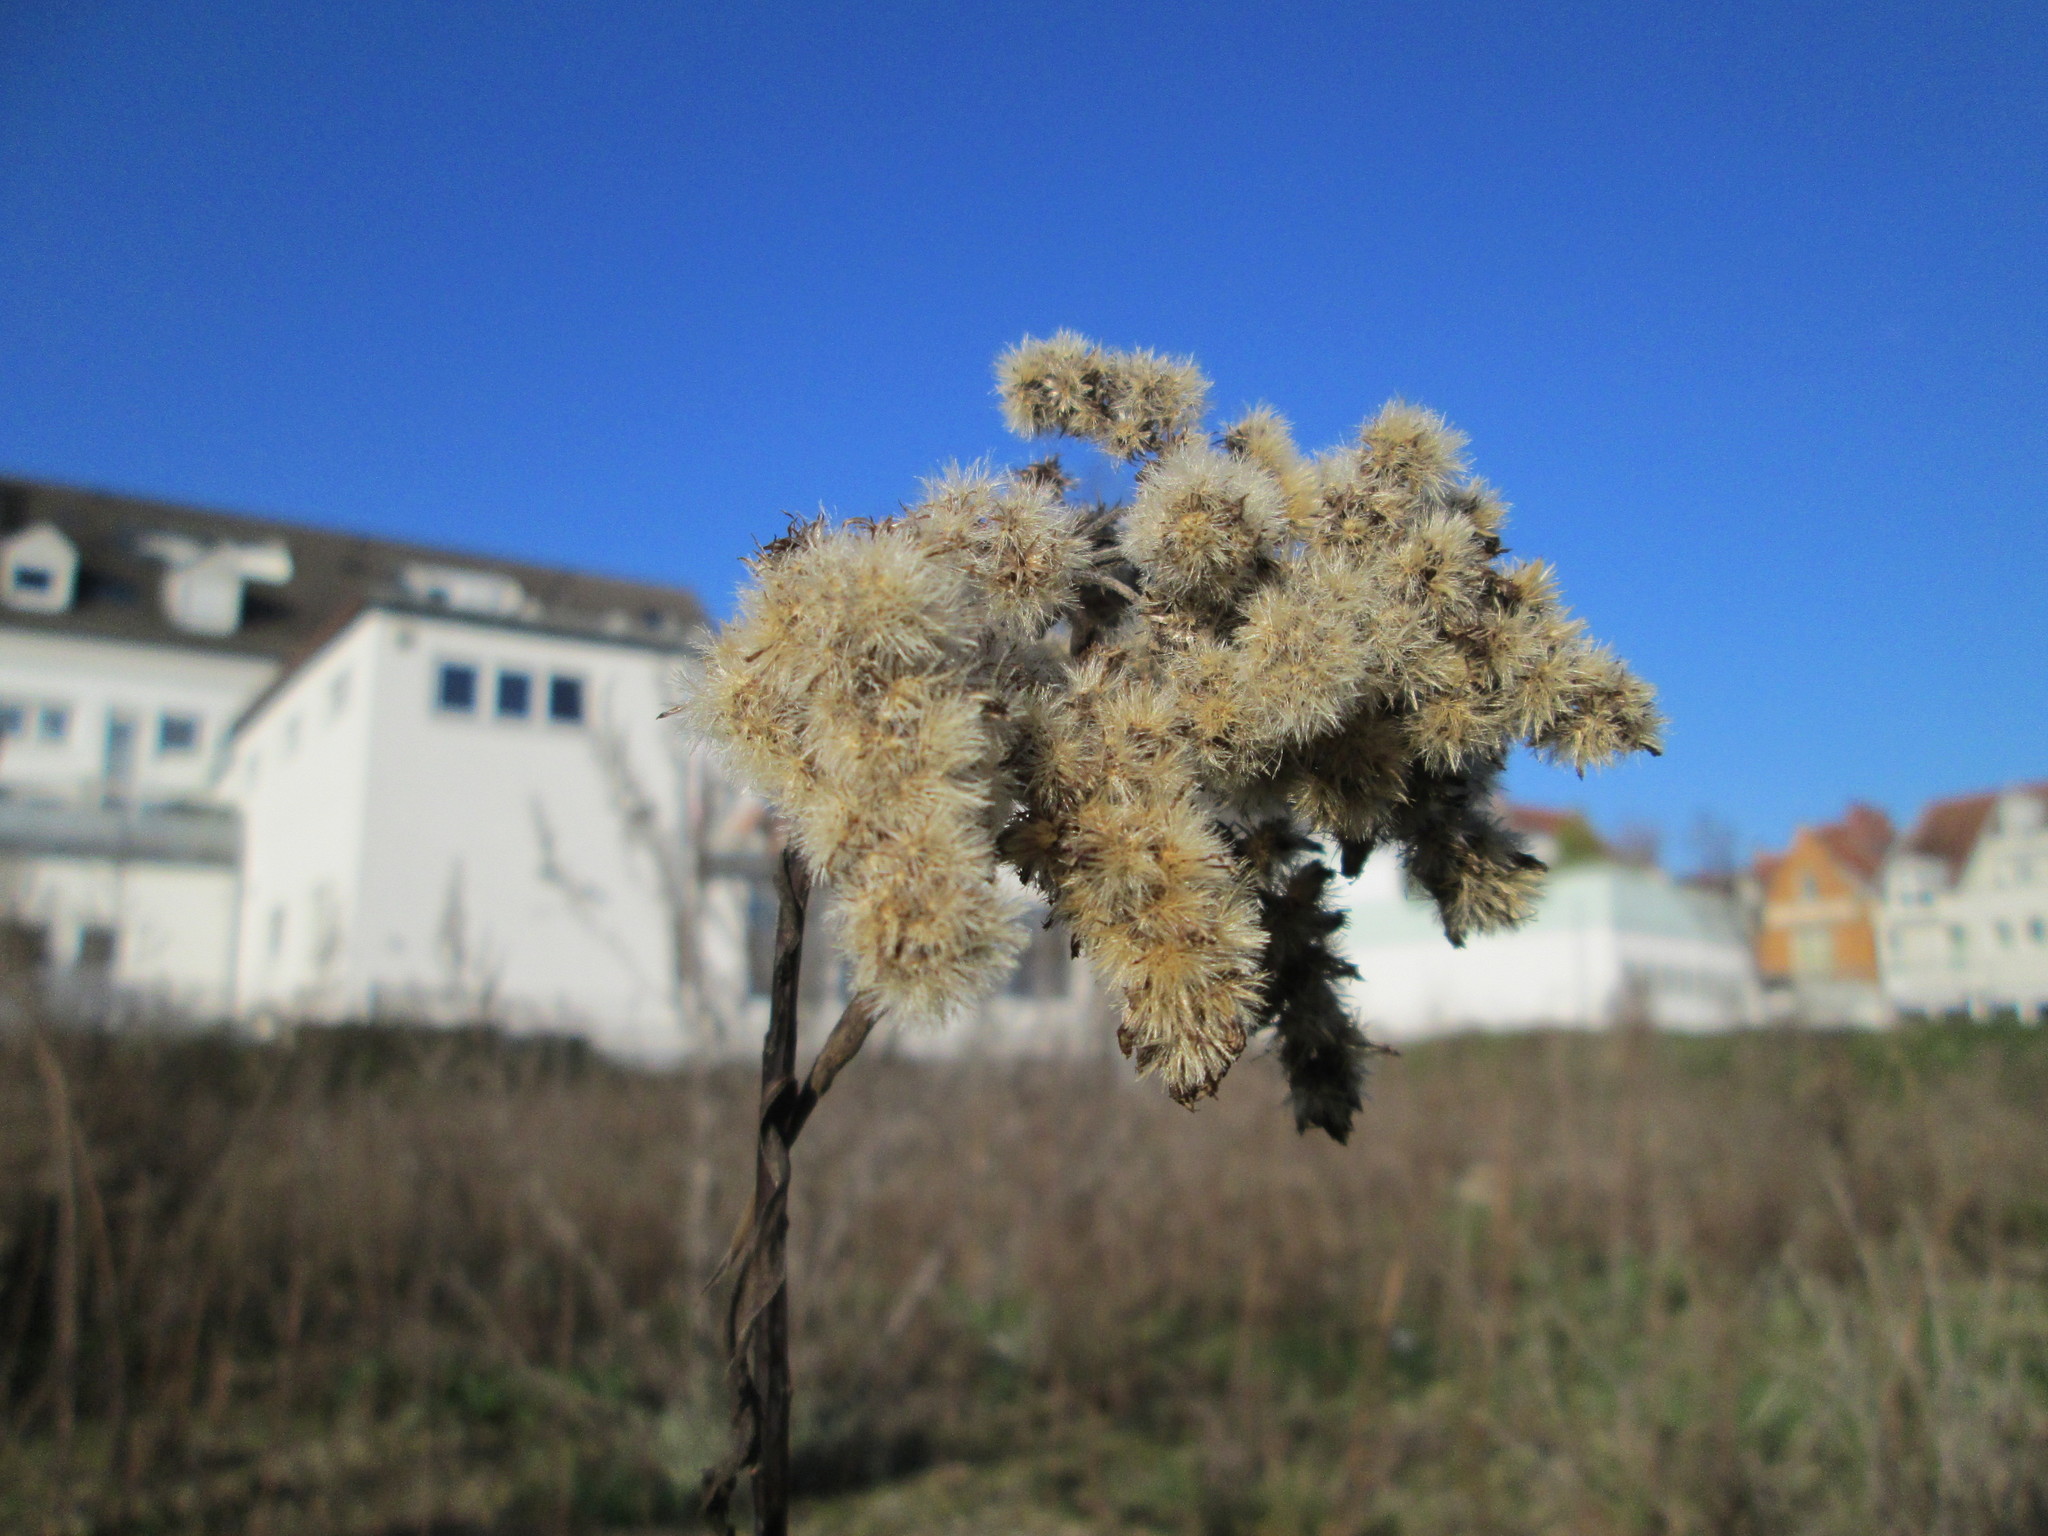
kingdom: Plantae
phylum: Tracheophyta
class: Magnoliopsida
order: Asterales
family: Asteraceae
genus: Solidago
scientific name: Solidago
